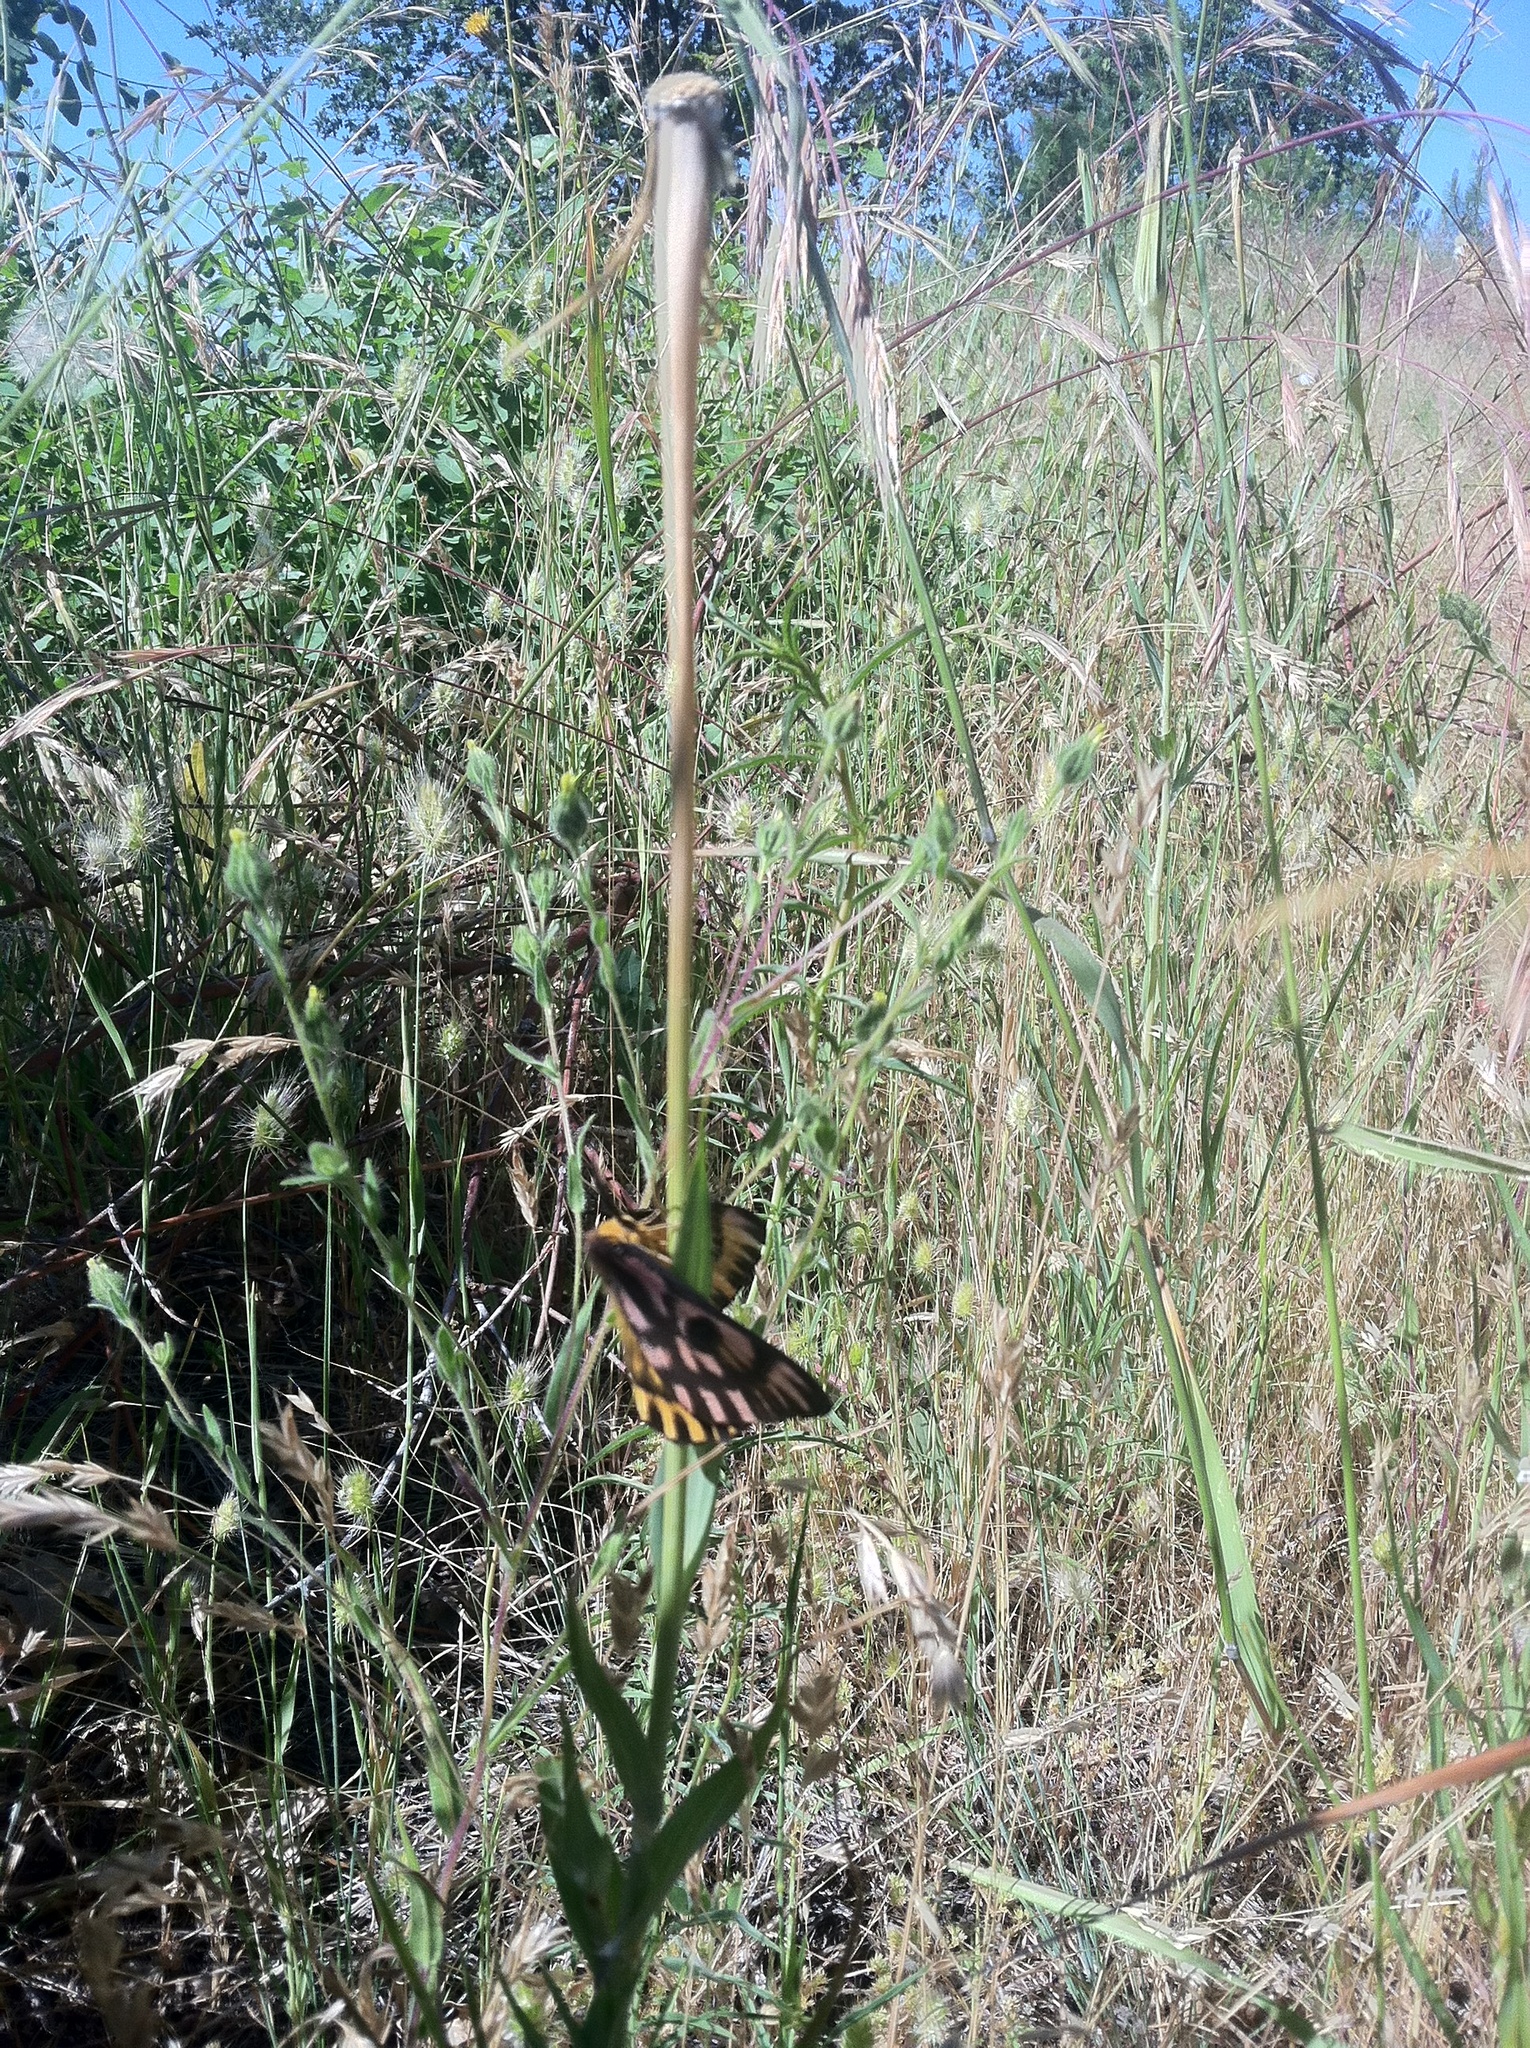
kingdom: Animalia
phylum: Arthropoda
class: Insecta
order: Lepidoptera
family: Saturniidae
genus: Hemileuca
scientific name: Hemileuca eglanterina
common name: Western sheepmoth
